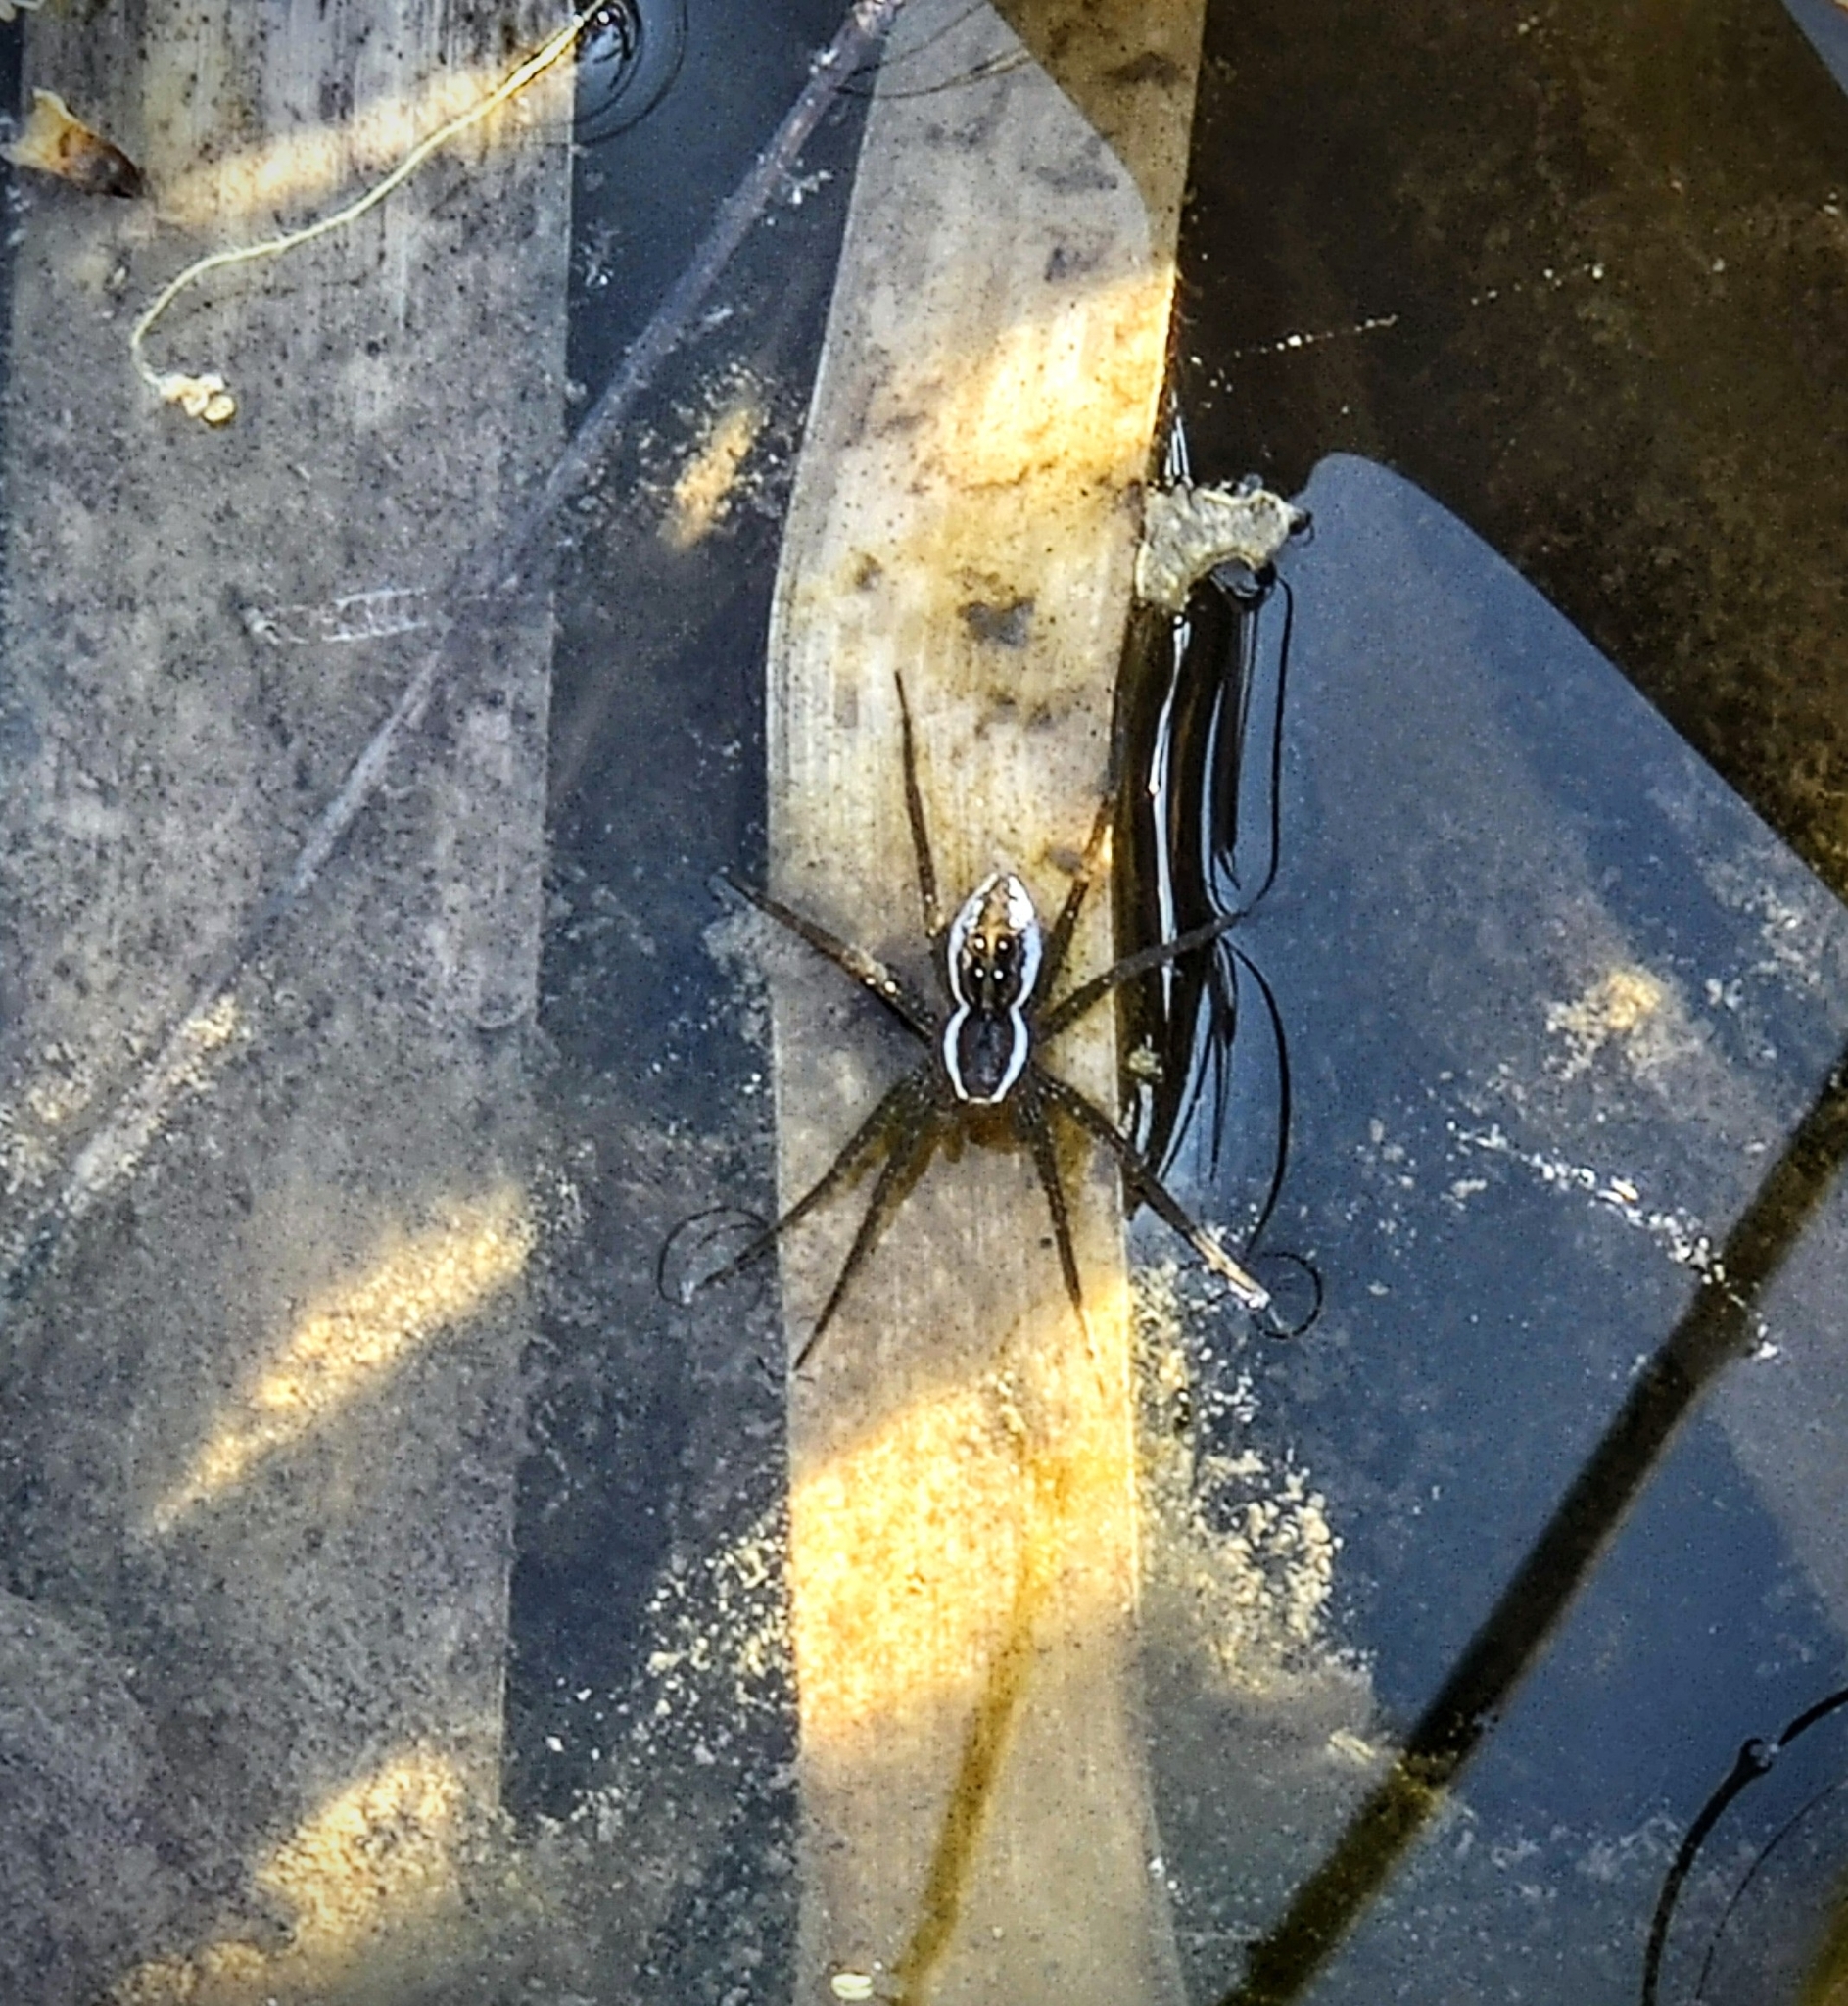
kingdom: Animalia
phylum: Arthropoda
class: Arachnida
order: Araneae
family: Pisauridae
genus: Dolomedes
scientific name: Dolomedes triton
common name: Six-spotted fishing spider
